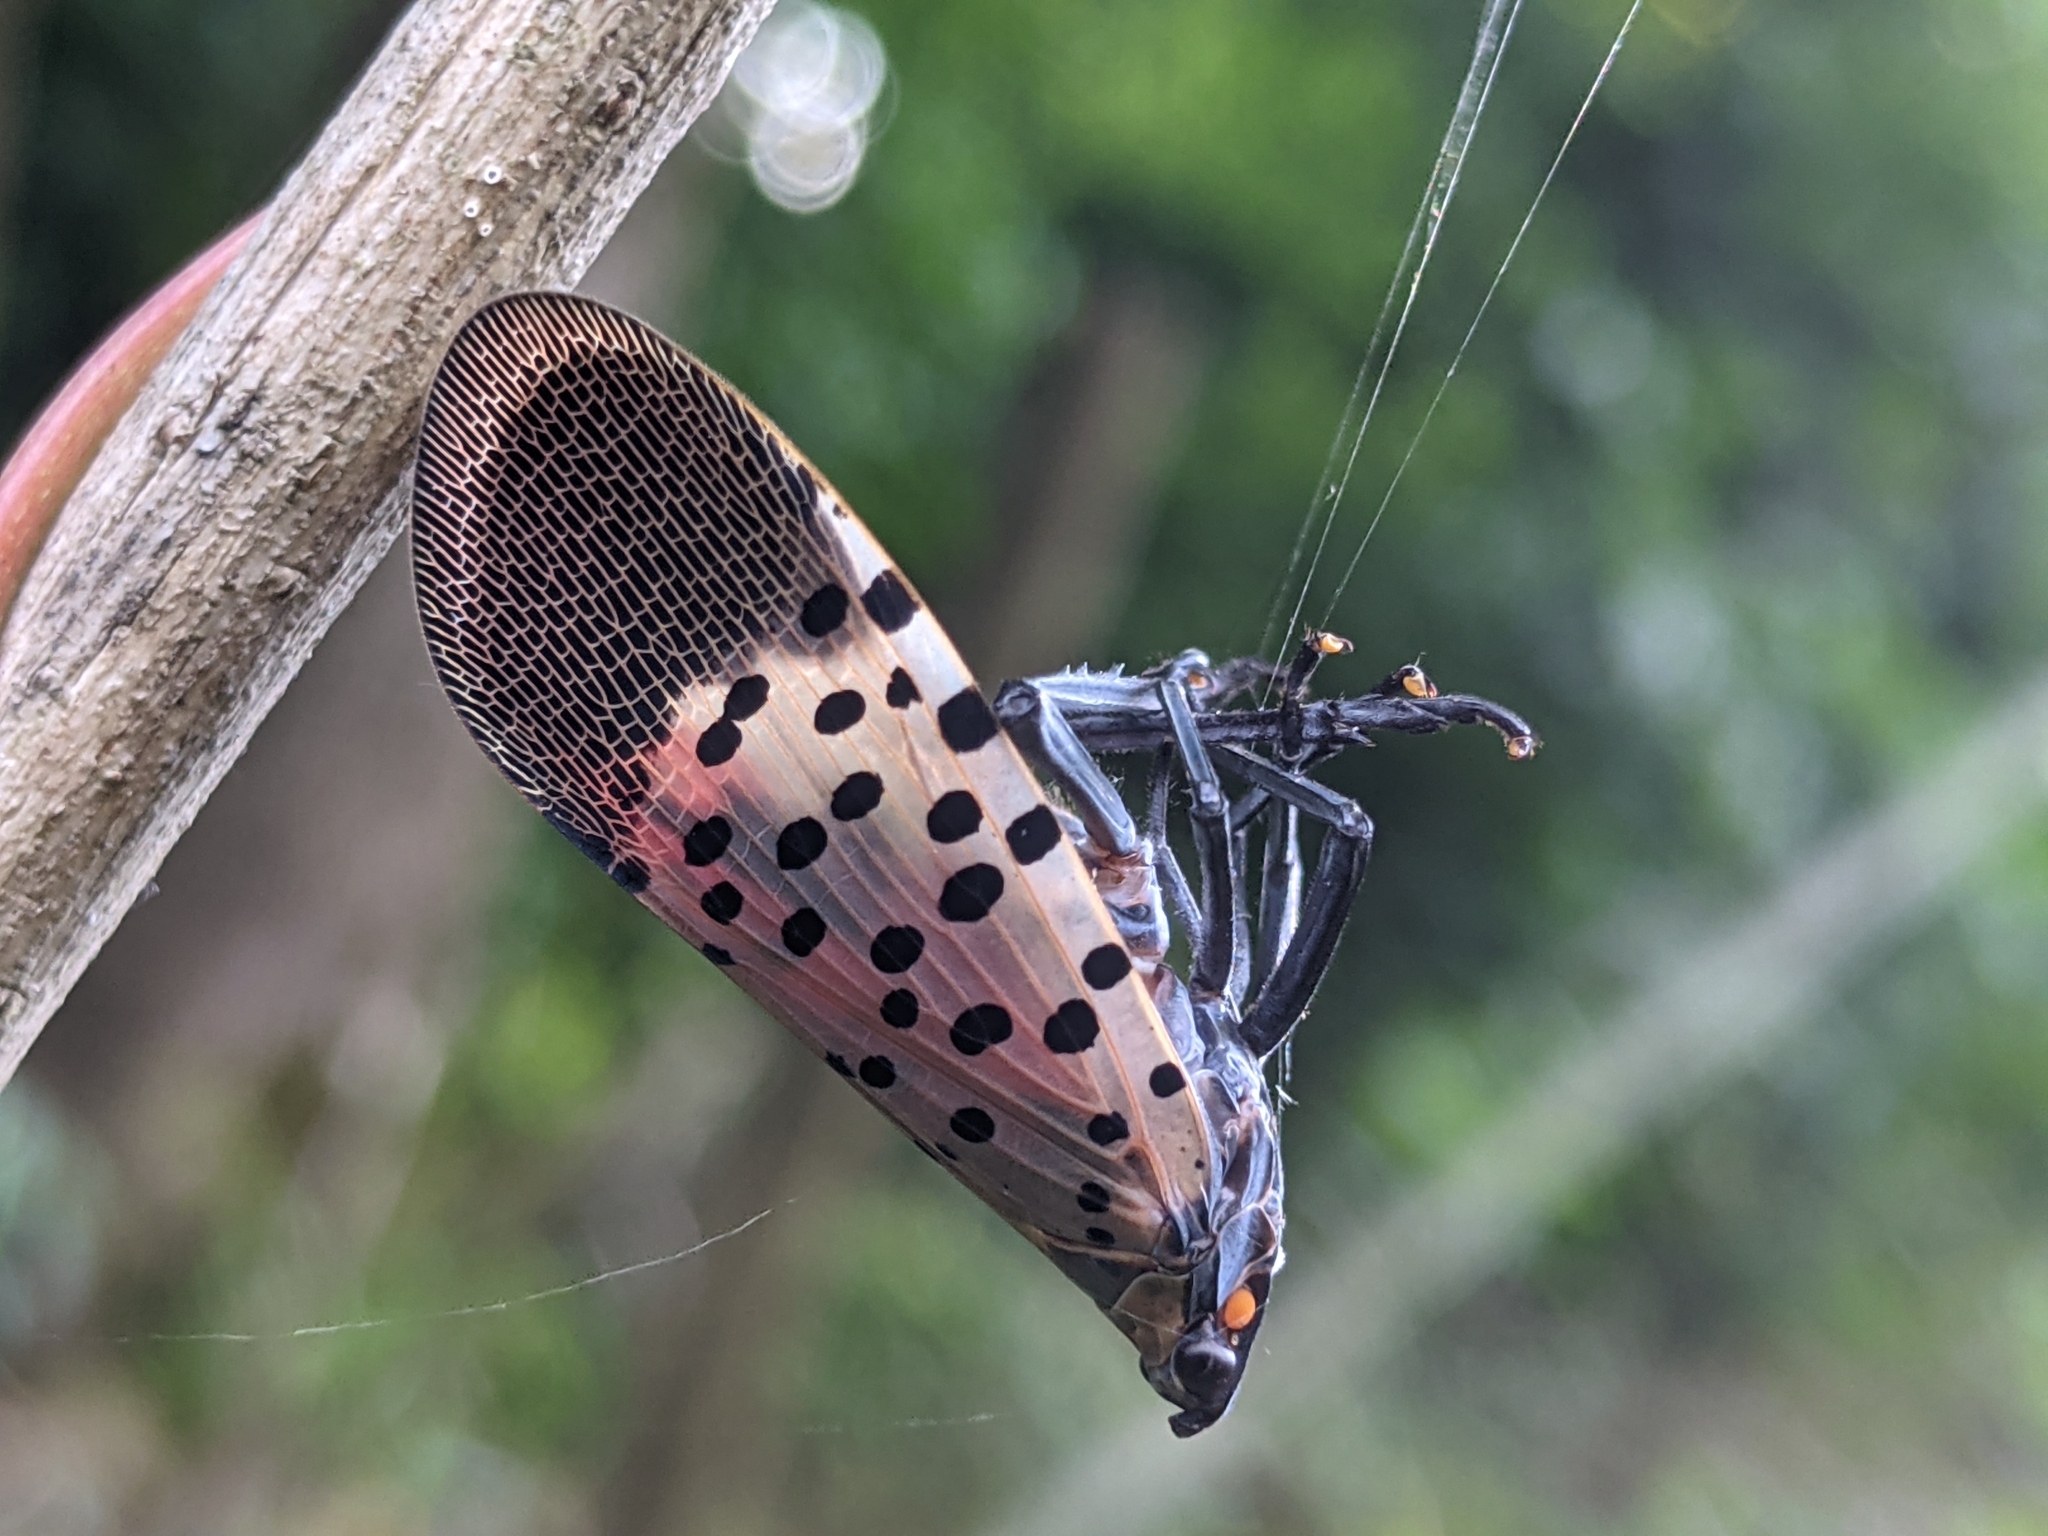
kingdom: Animalia
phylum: Arthropoda
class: Insecta
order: Hemiptera
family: Fulgoridae
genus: Lycorma
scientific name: Lycorma delicatula
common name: Spotted lanternfly
